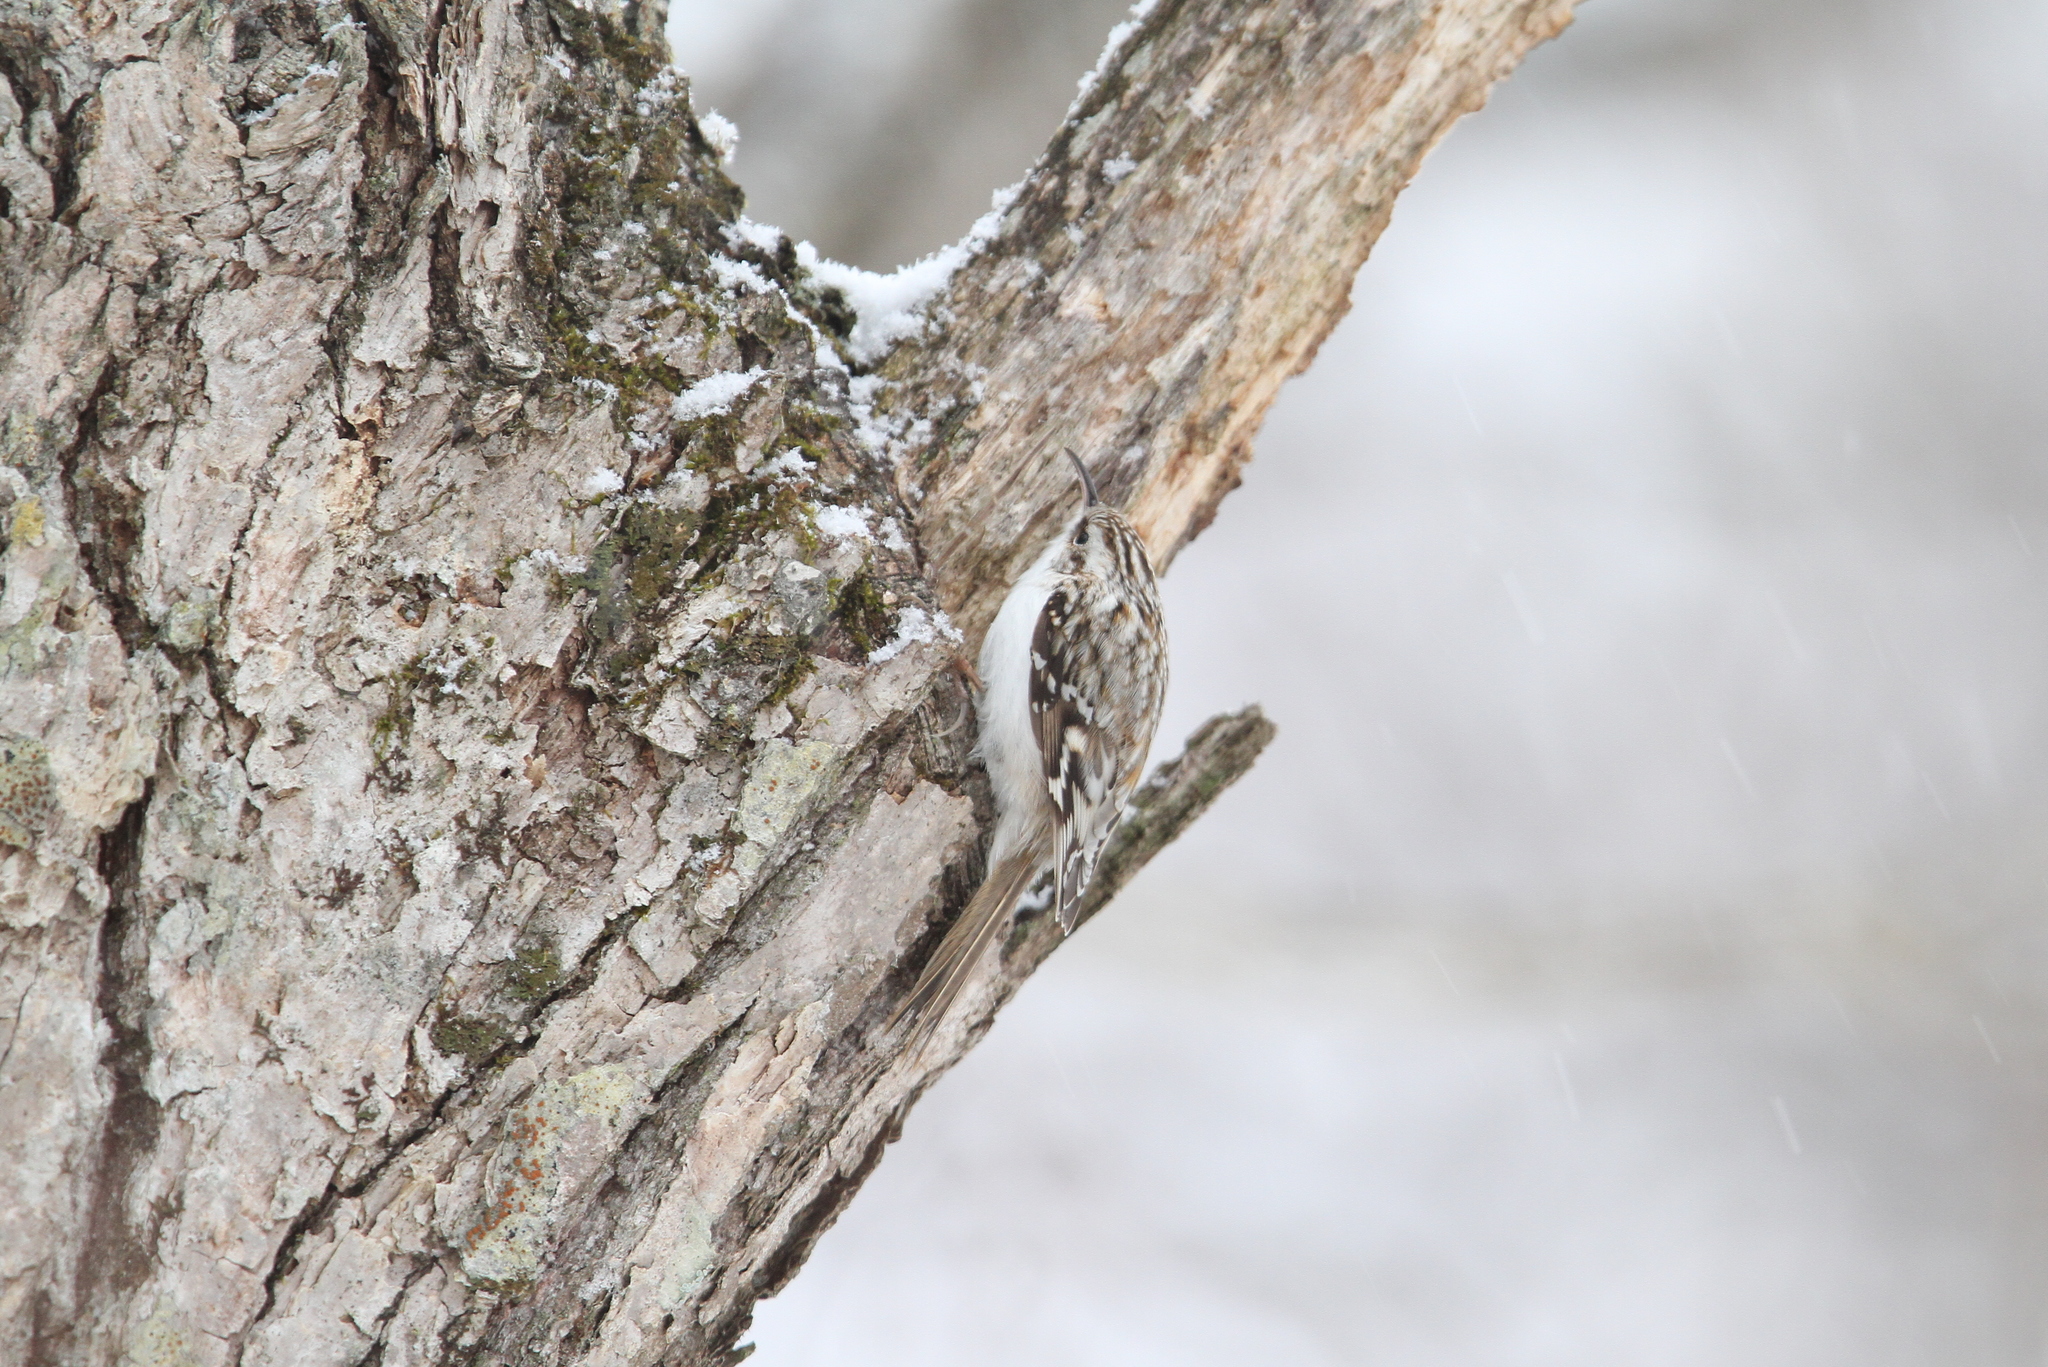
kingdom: Animalia
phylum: Chordata
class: Aves
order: Passeriformes
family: Certhiidae
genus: Certhia
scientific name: Certhia familiaris
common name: Eurasian treecreeper
